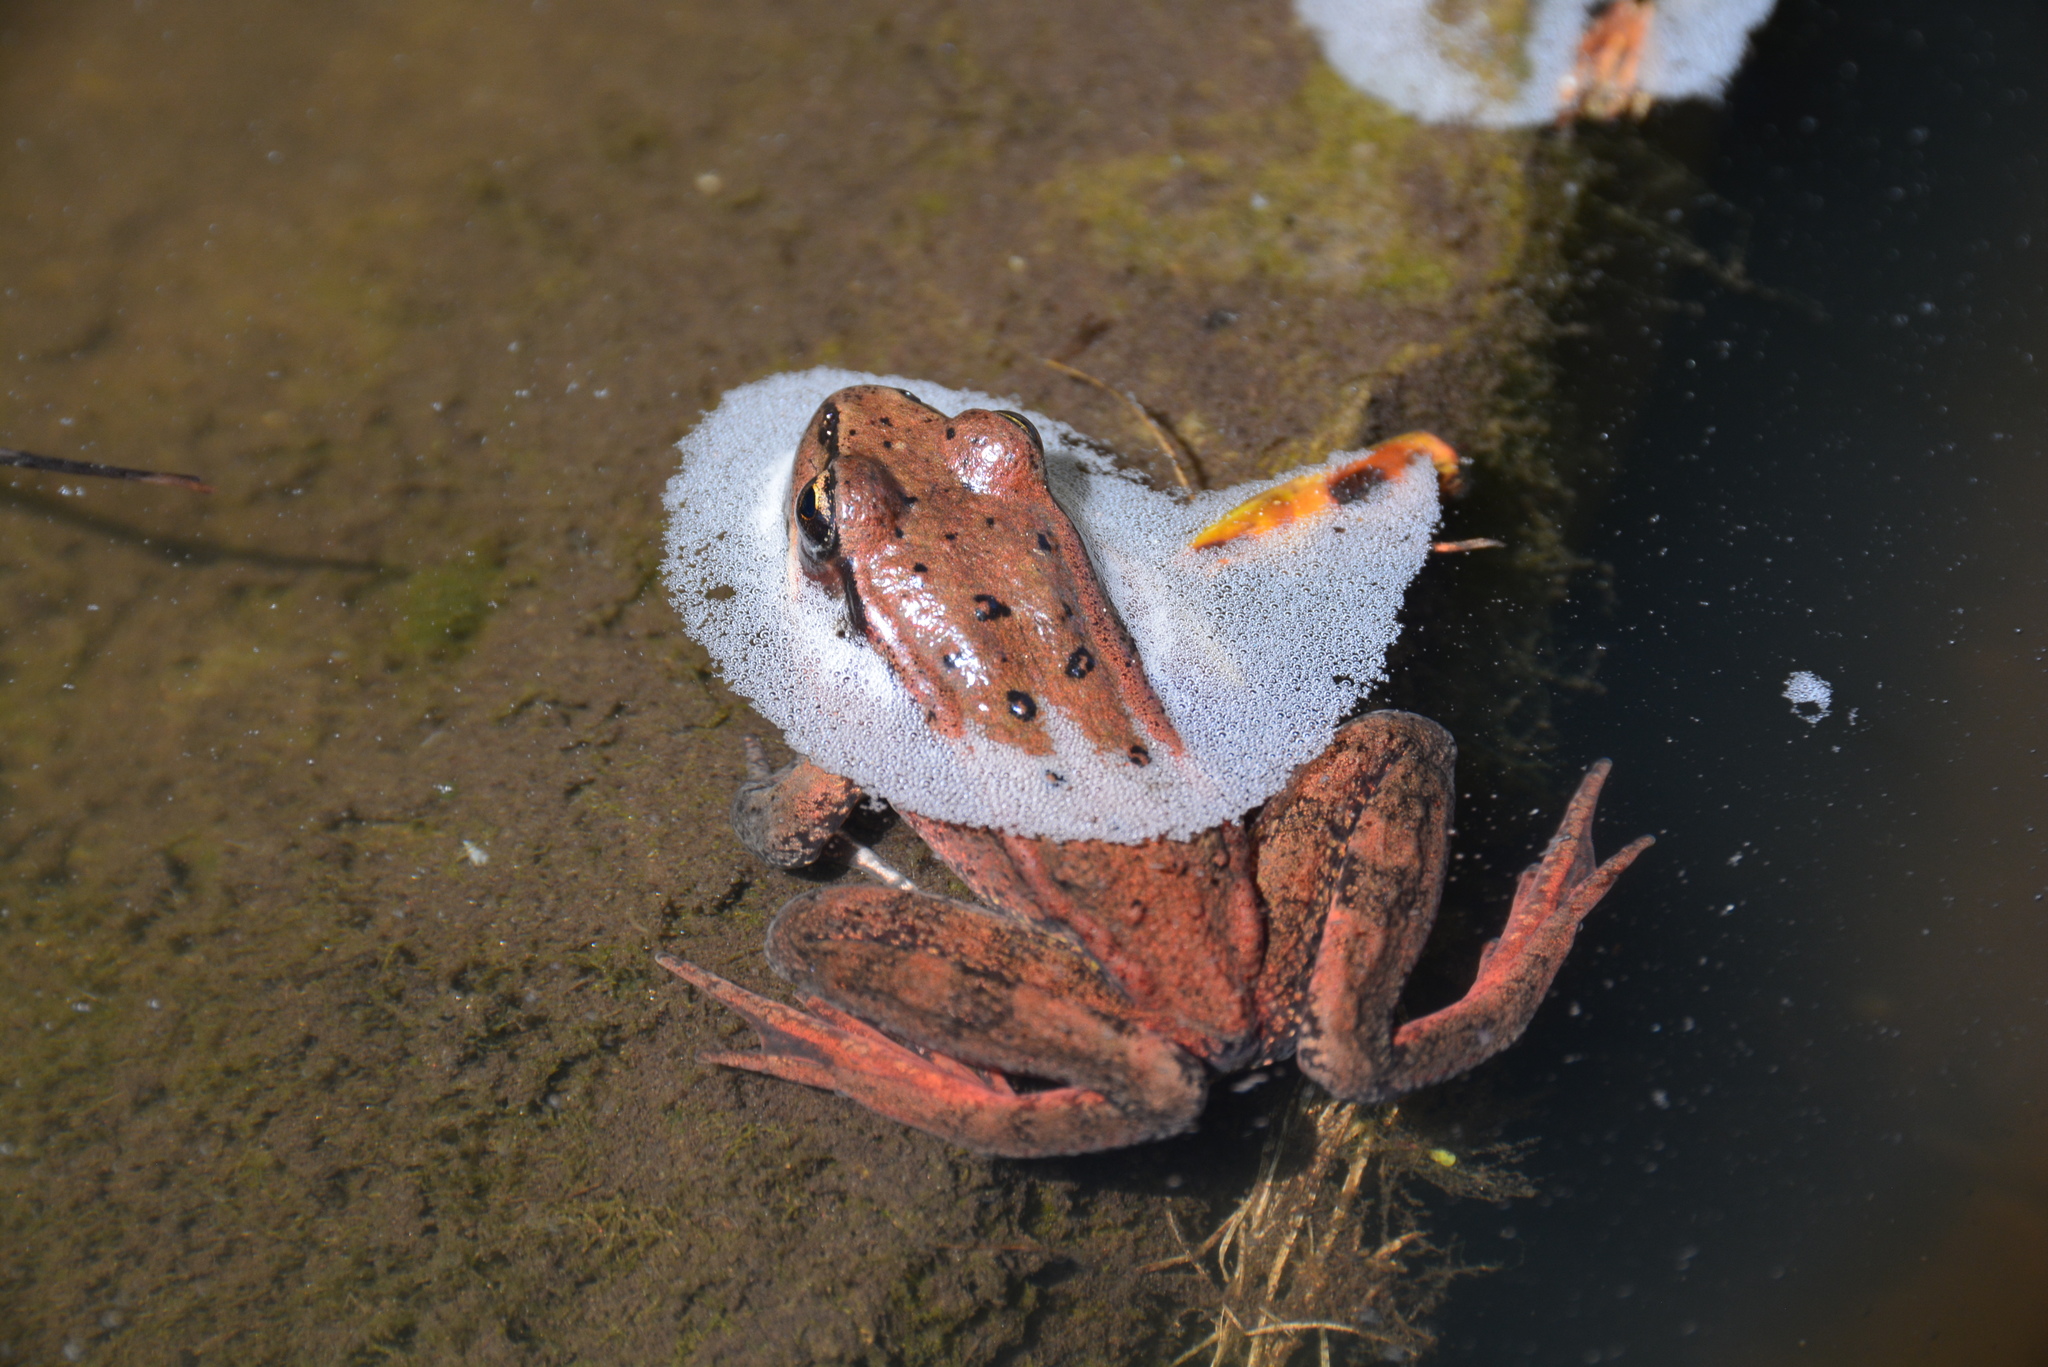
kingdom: Animalia
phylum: Chordata
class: Amphibia
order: Anura
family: Ranidae
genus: Rana
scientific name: Rana aurora
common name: Red-legged frog
